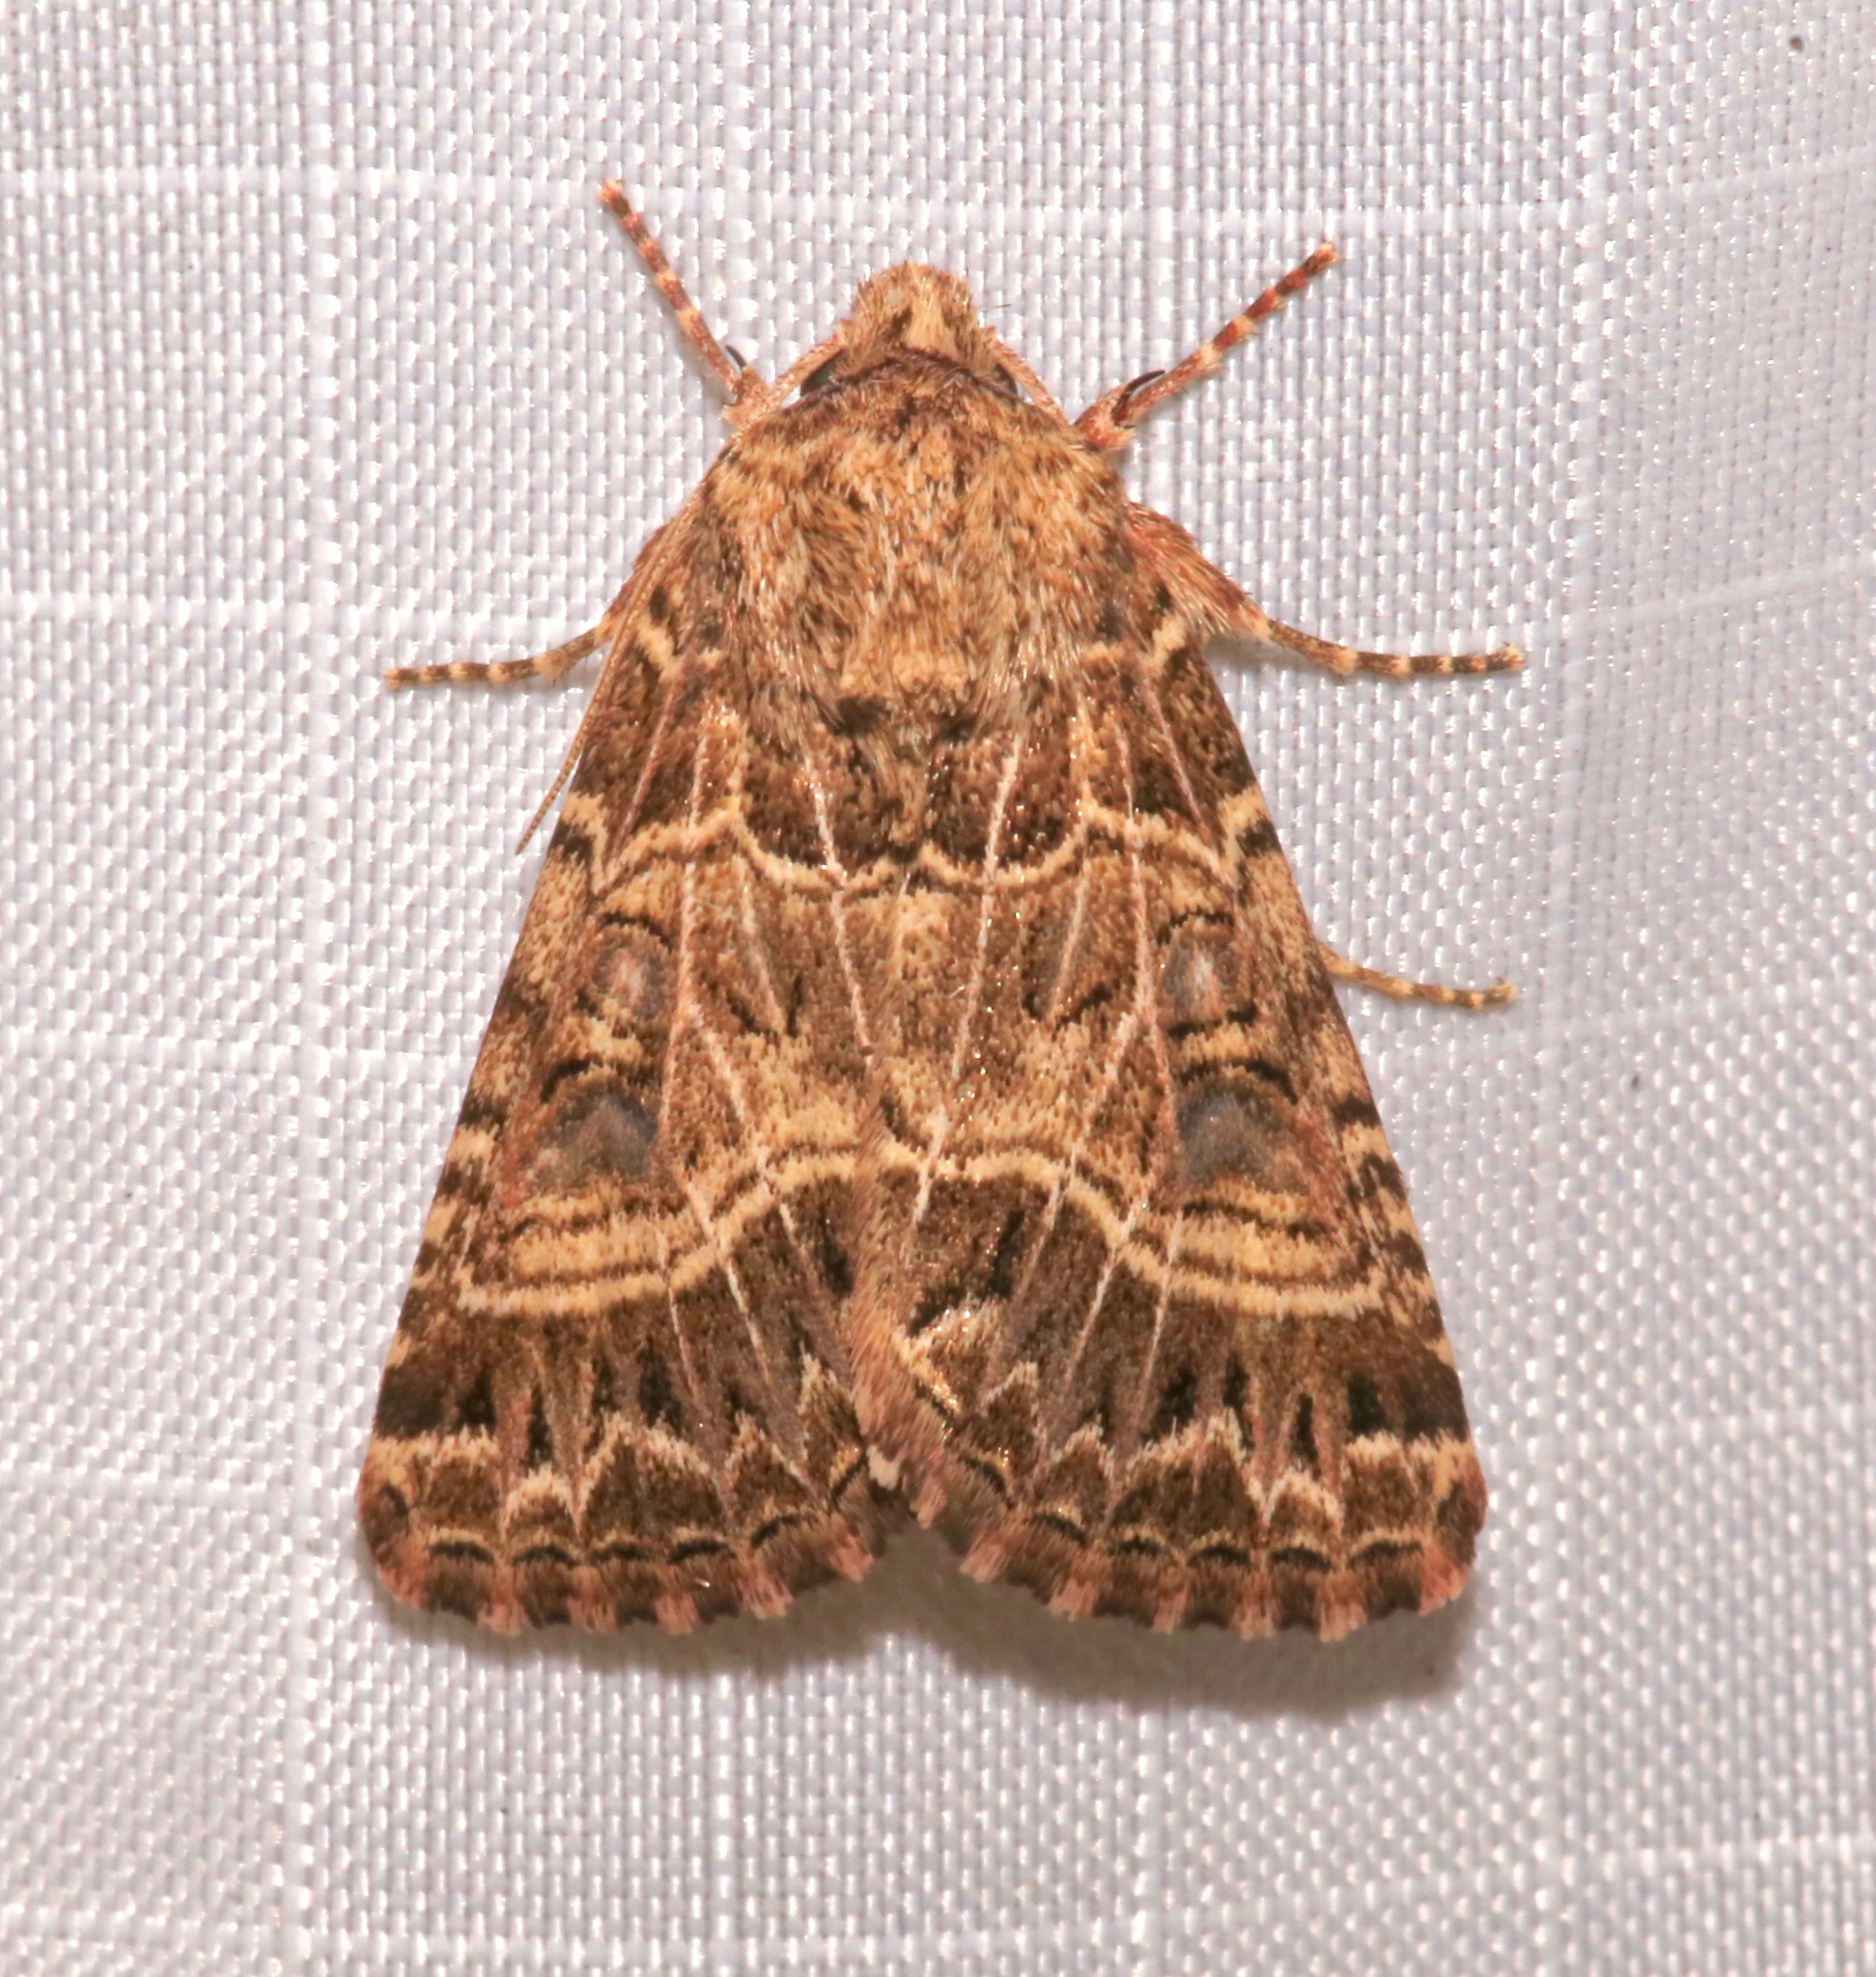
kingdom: Animalia
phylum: Arthropoda
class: Insecta
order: Lepidoptera
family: Noctuidae
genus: Schinia
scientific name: Schinia mexicana
